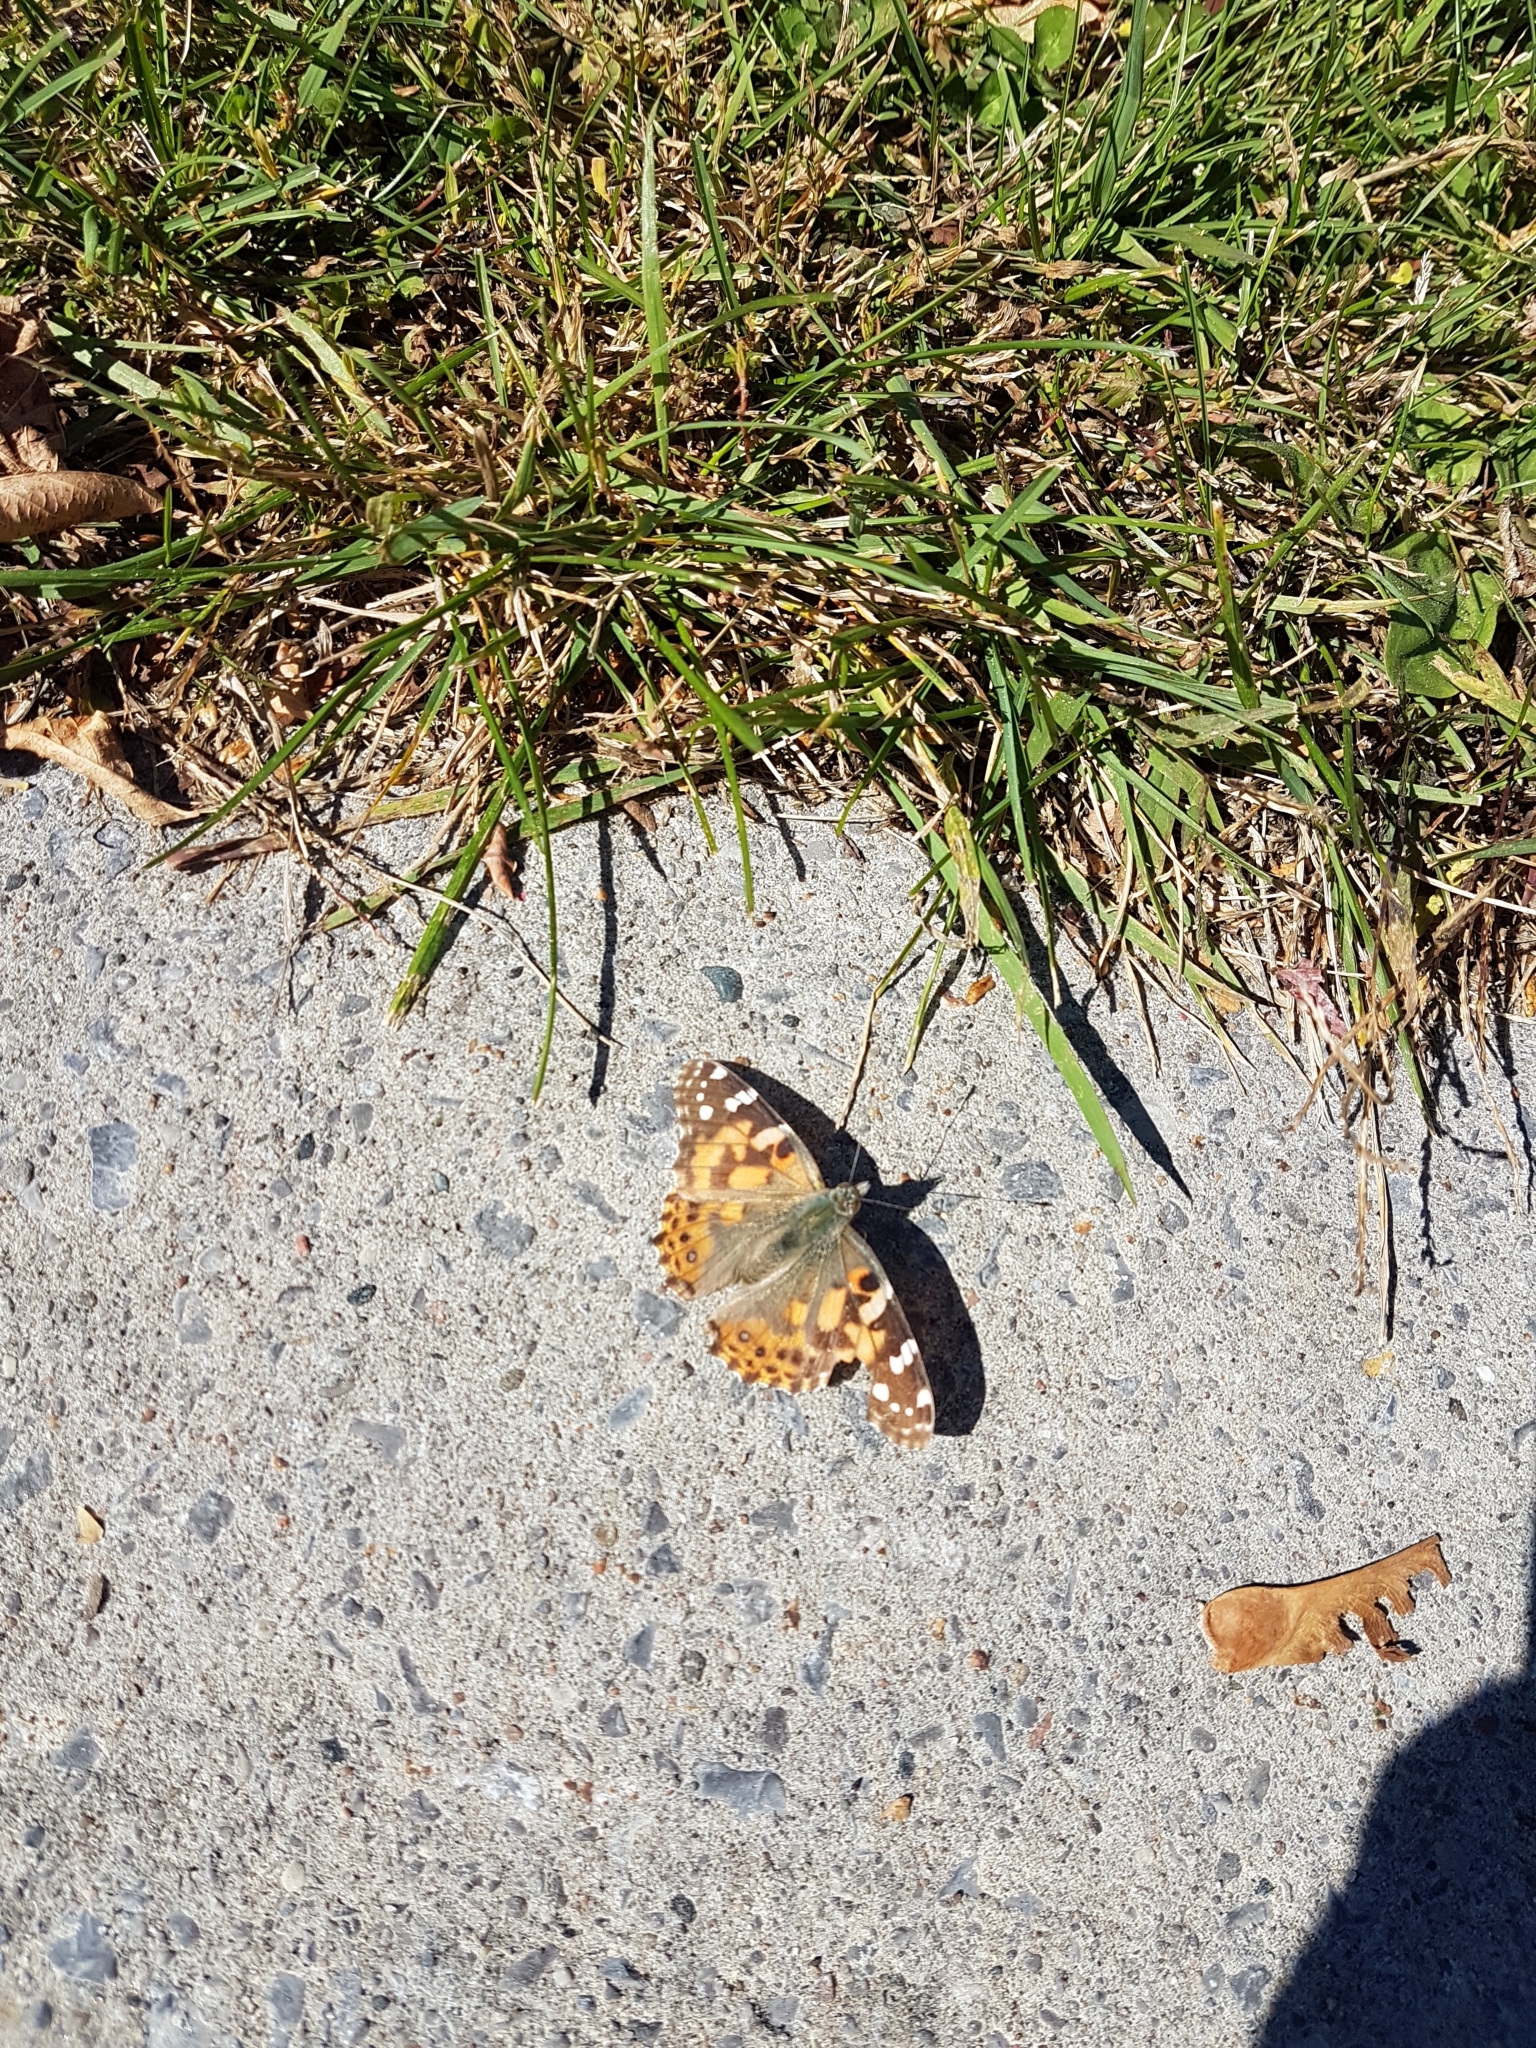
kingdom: Animalia
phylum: Arthropoda
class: Insecta
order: Lepidoptera
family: Nymphalidae
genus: Vanessa
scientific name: Vanessa cardui
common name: Painted lady
